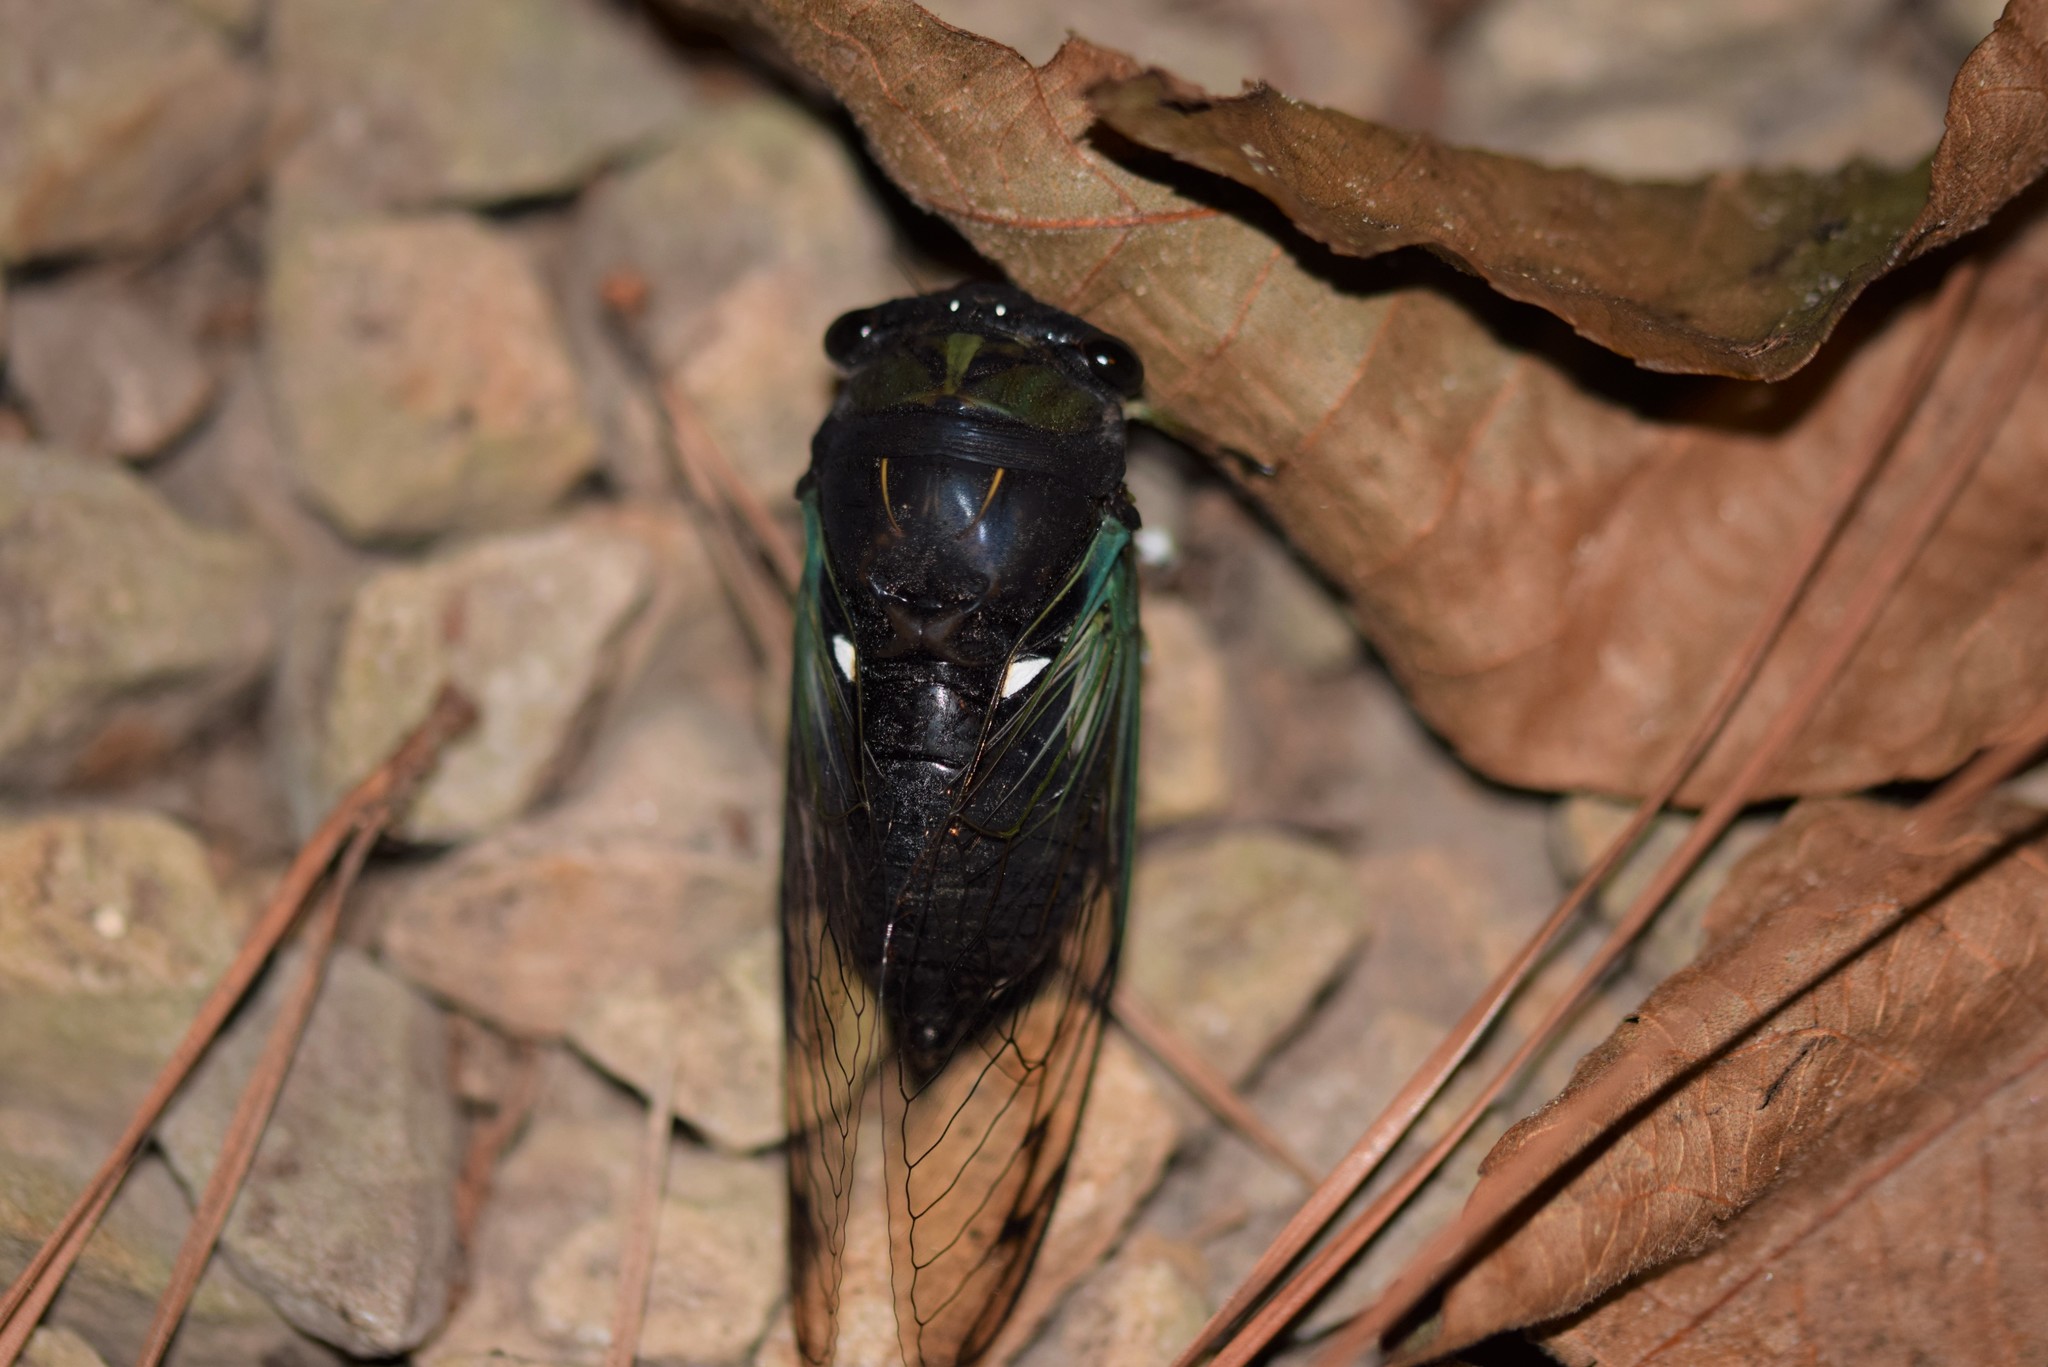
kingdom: Animalia
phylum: Arthropoda
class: Insecta
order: Hemiptera
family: Cicadidae
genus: Neotibicen
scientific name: Neotibicen tibicen
